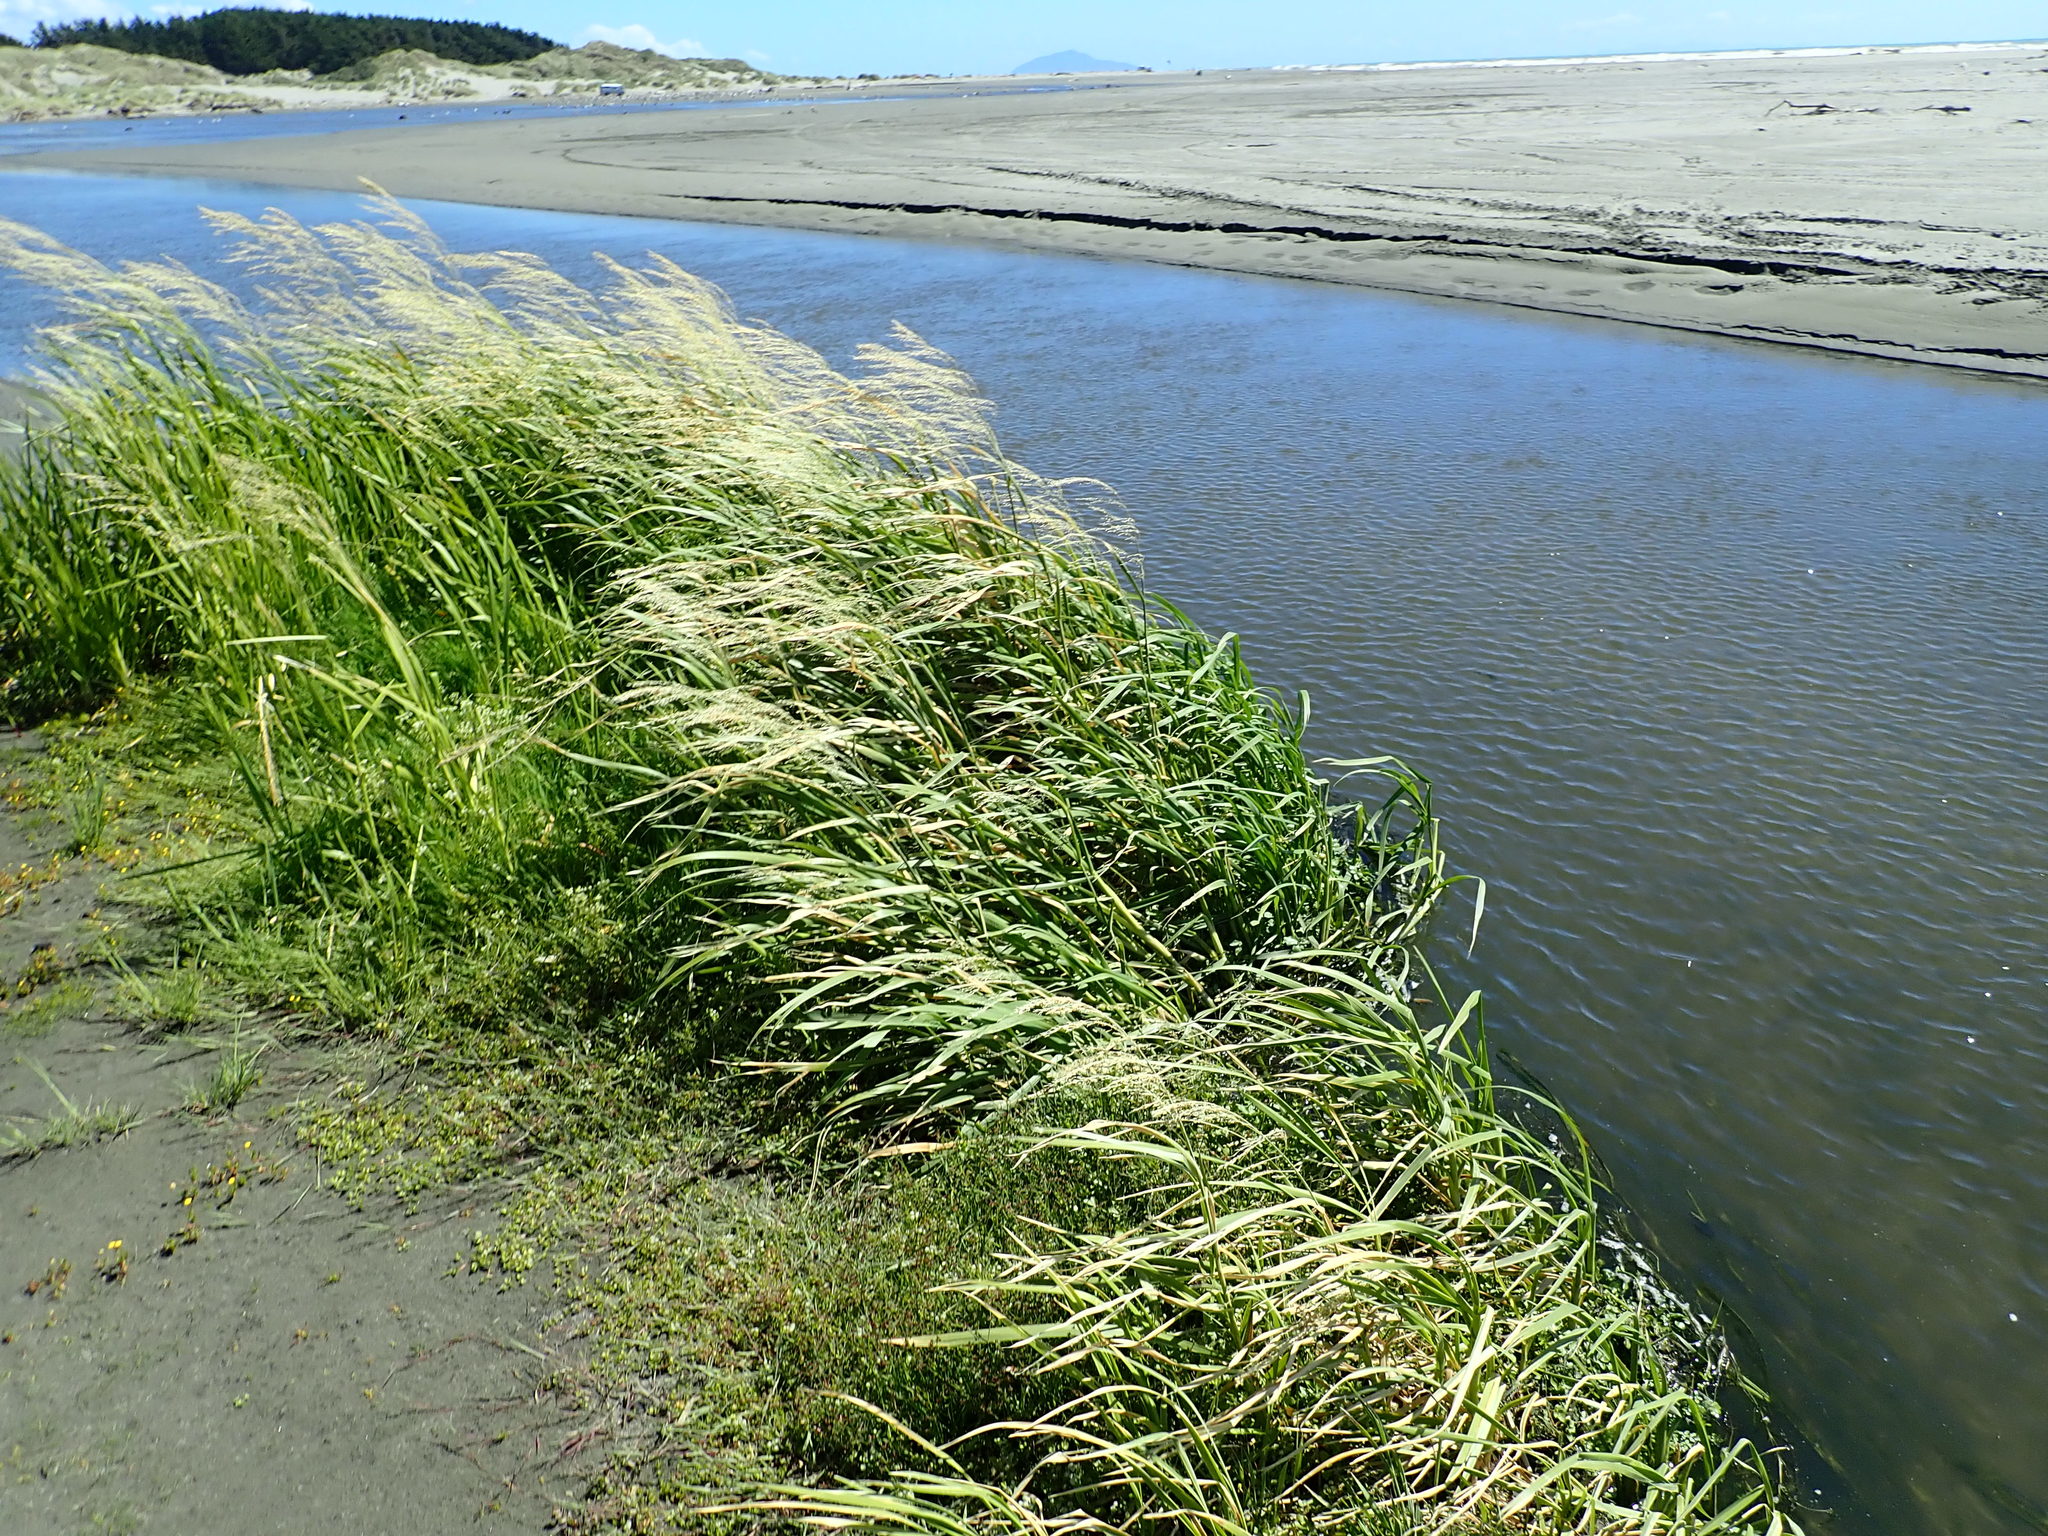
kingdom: Plantae
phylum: Tracheophyta
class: Liliopsida
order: Poales
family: Poaceae
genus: Glyceria
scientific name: Glyceria maxima
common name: Reed mannagrass
